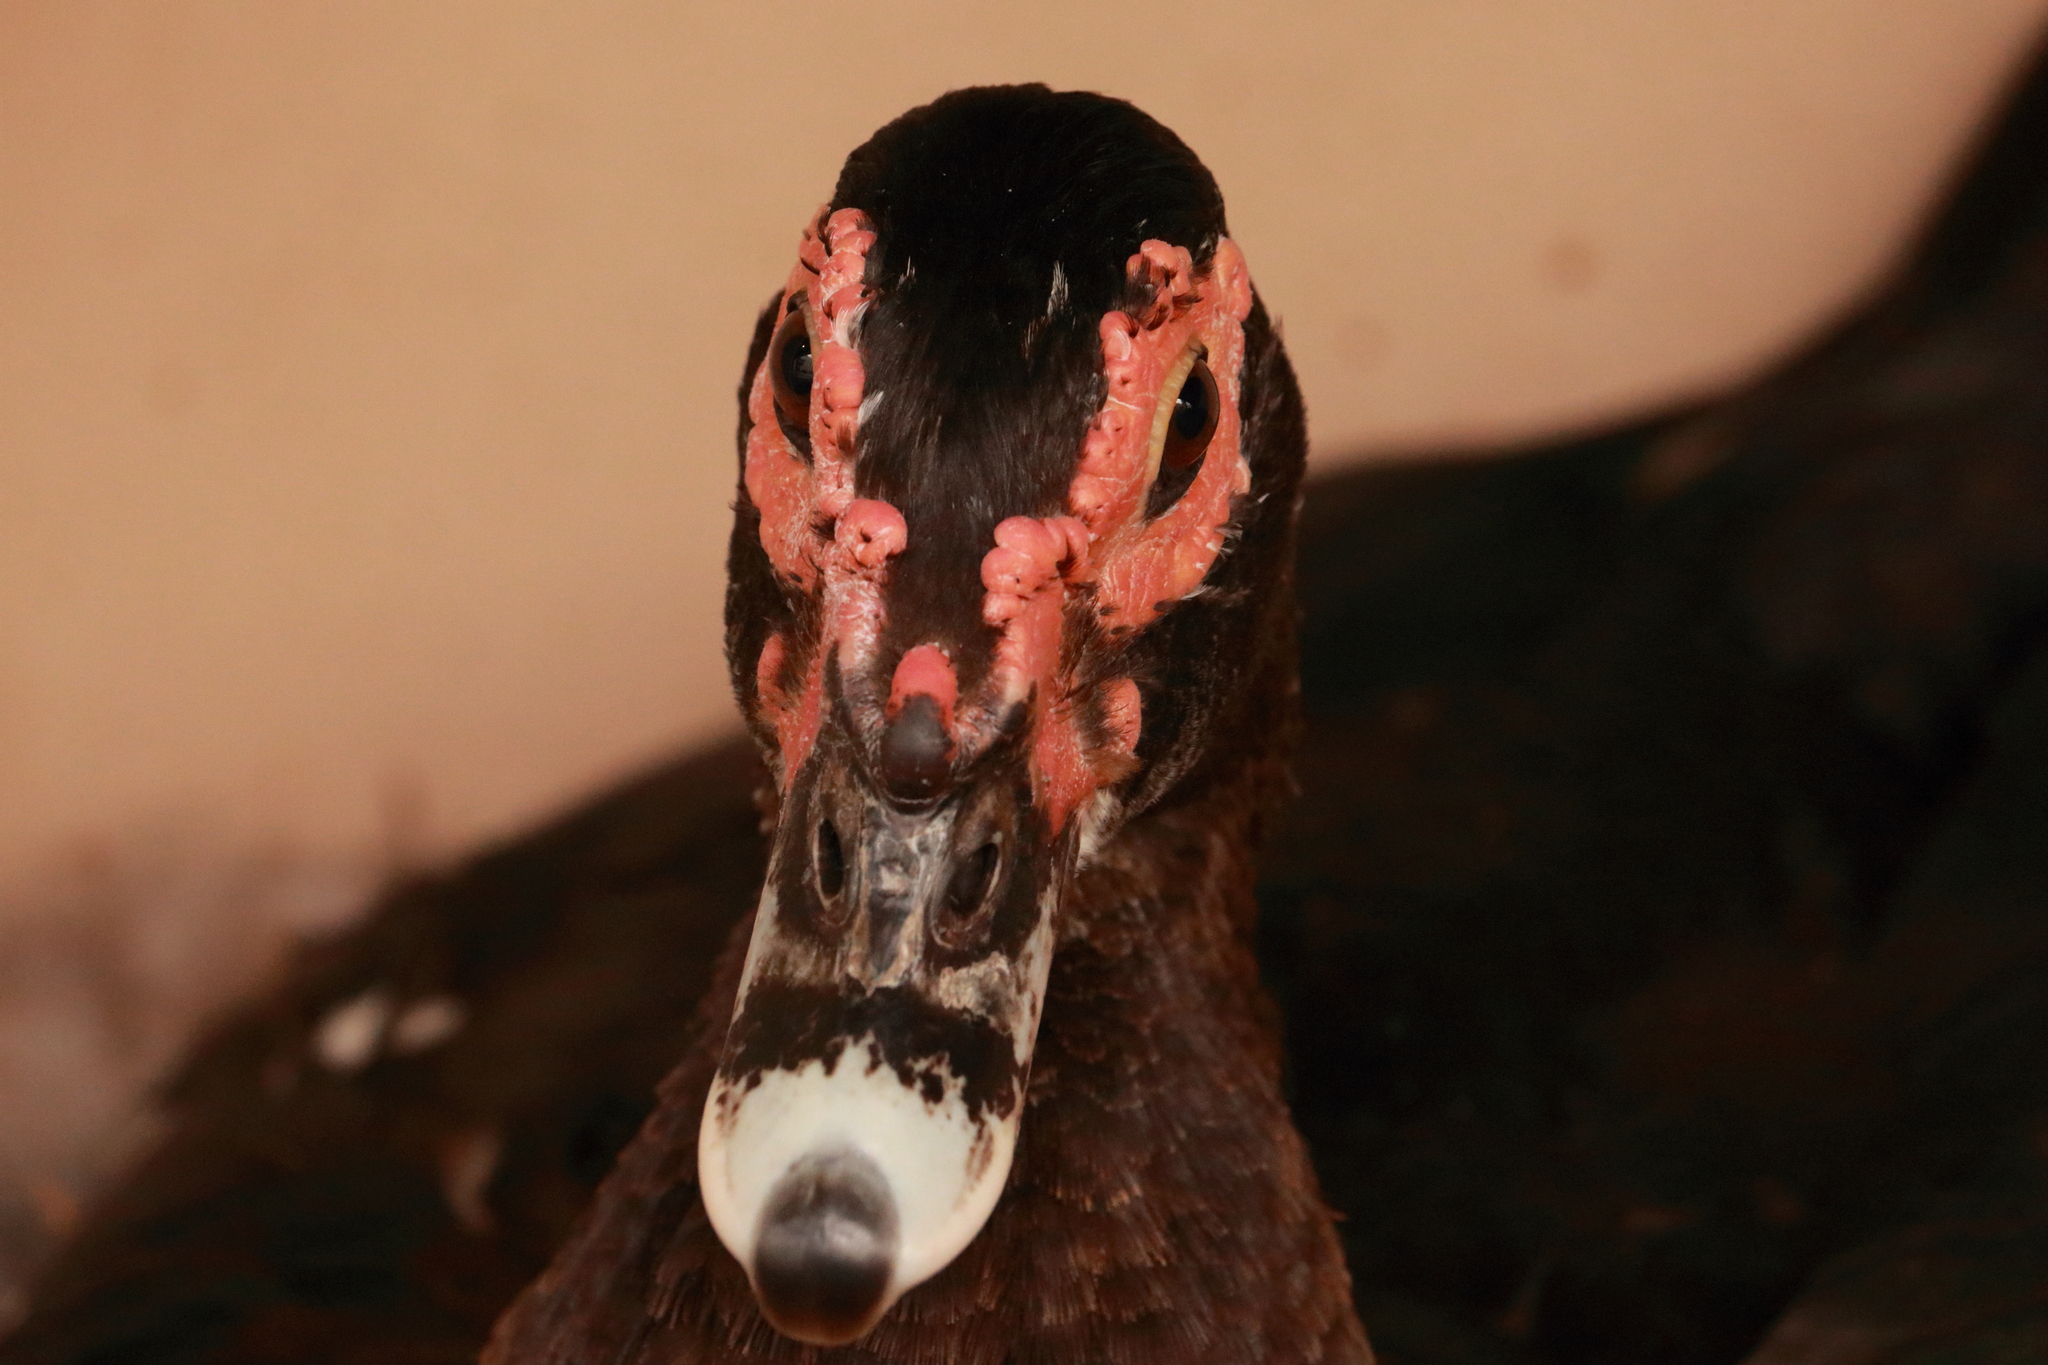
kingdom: Animalia
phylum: Chordata
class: Aves
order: Anseriformes
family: Anatidae
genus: Cairina
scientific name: Cairina moschata
